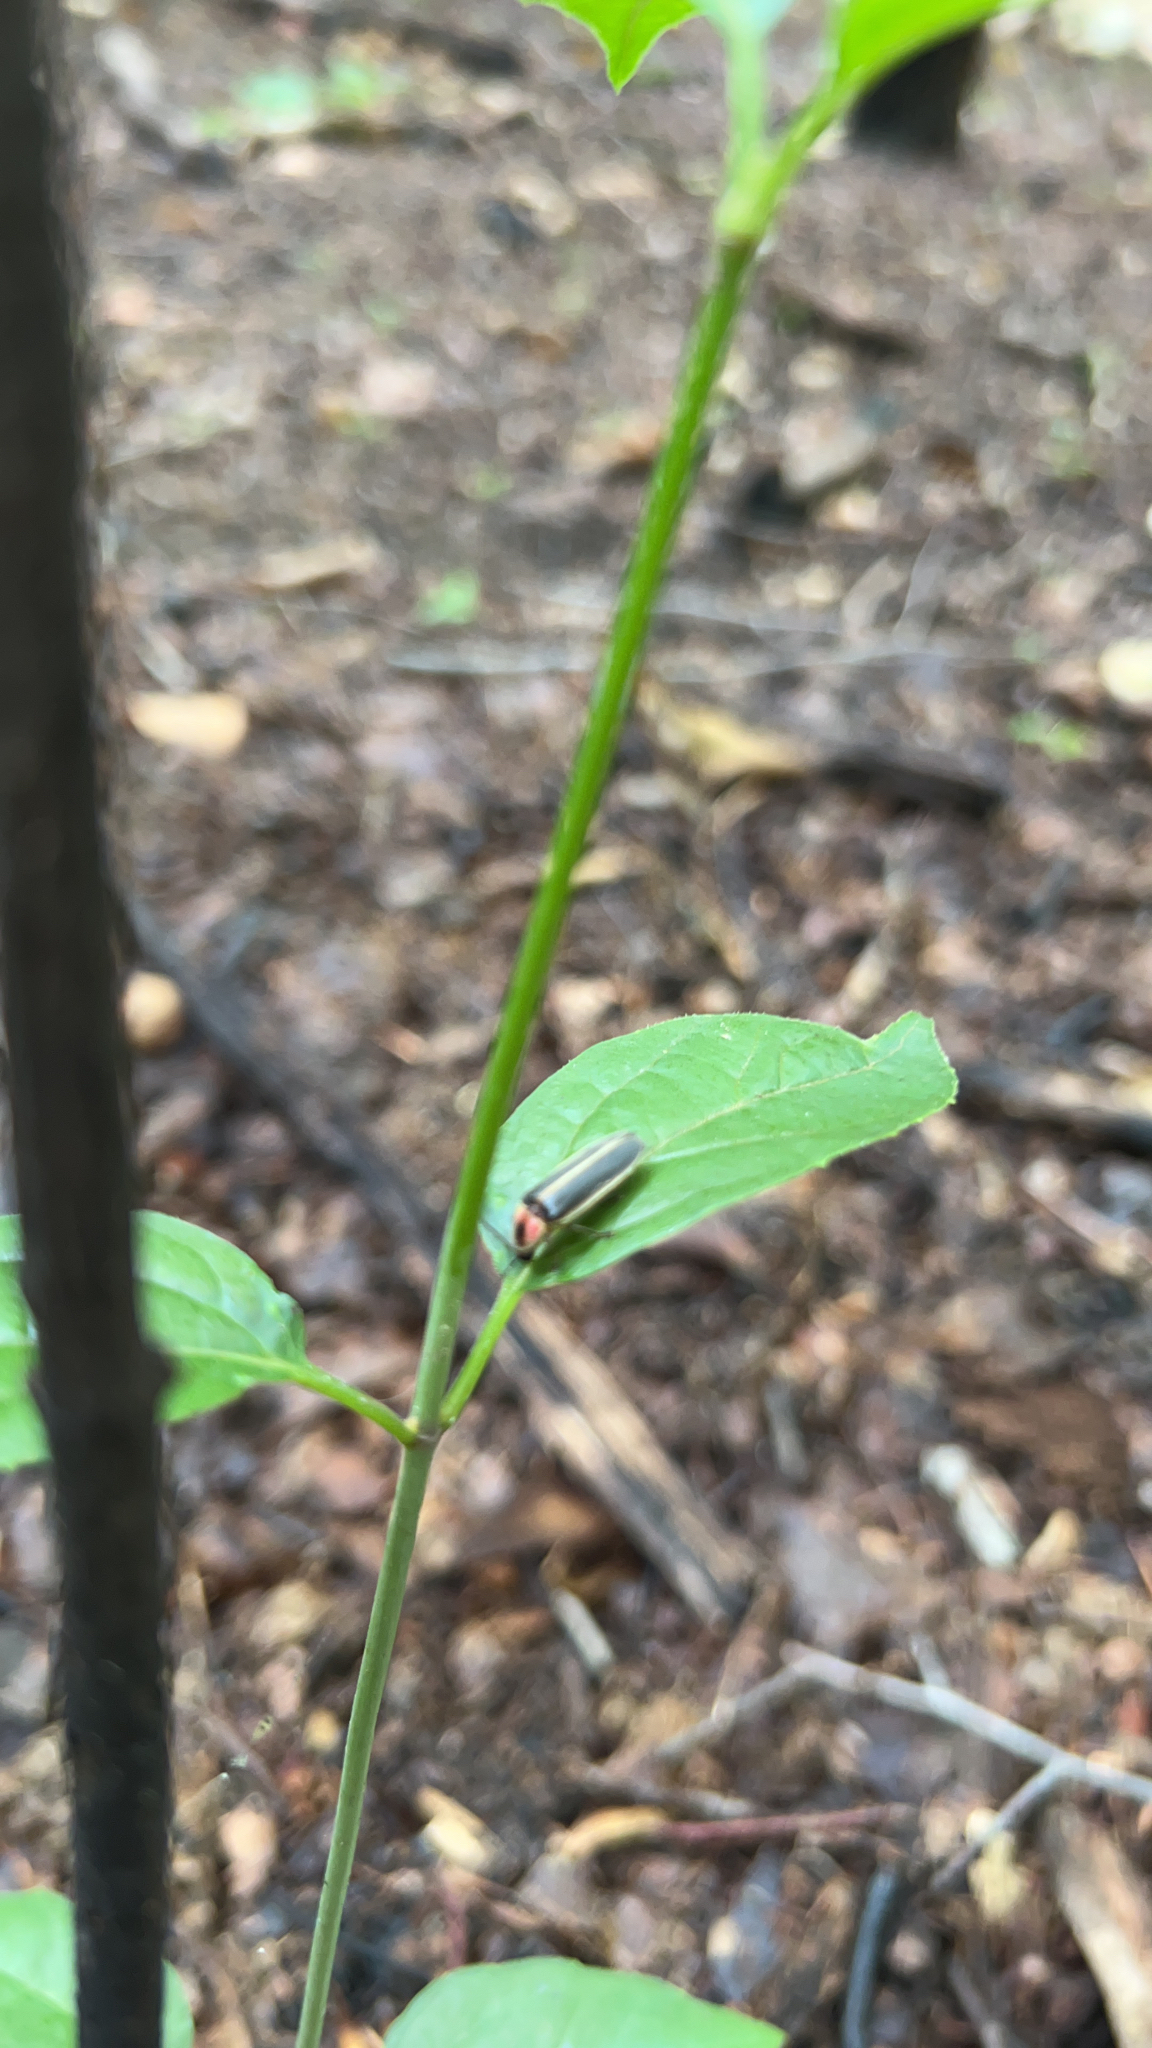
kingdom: Animalia
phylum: Arthropoda
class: Insecta
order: Coleoptera
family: Lampyridae
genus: Photinus
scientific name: Photinus pyralis
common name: Big dipper firefly
